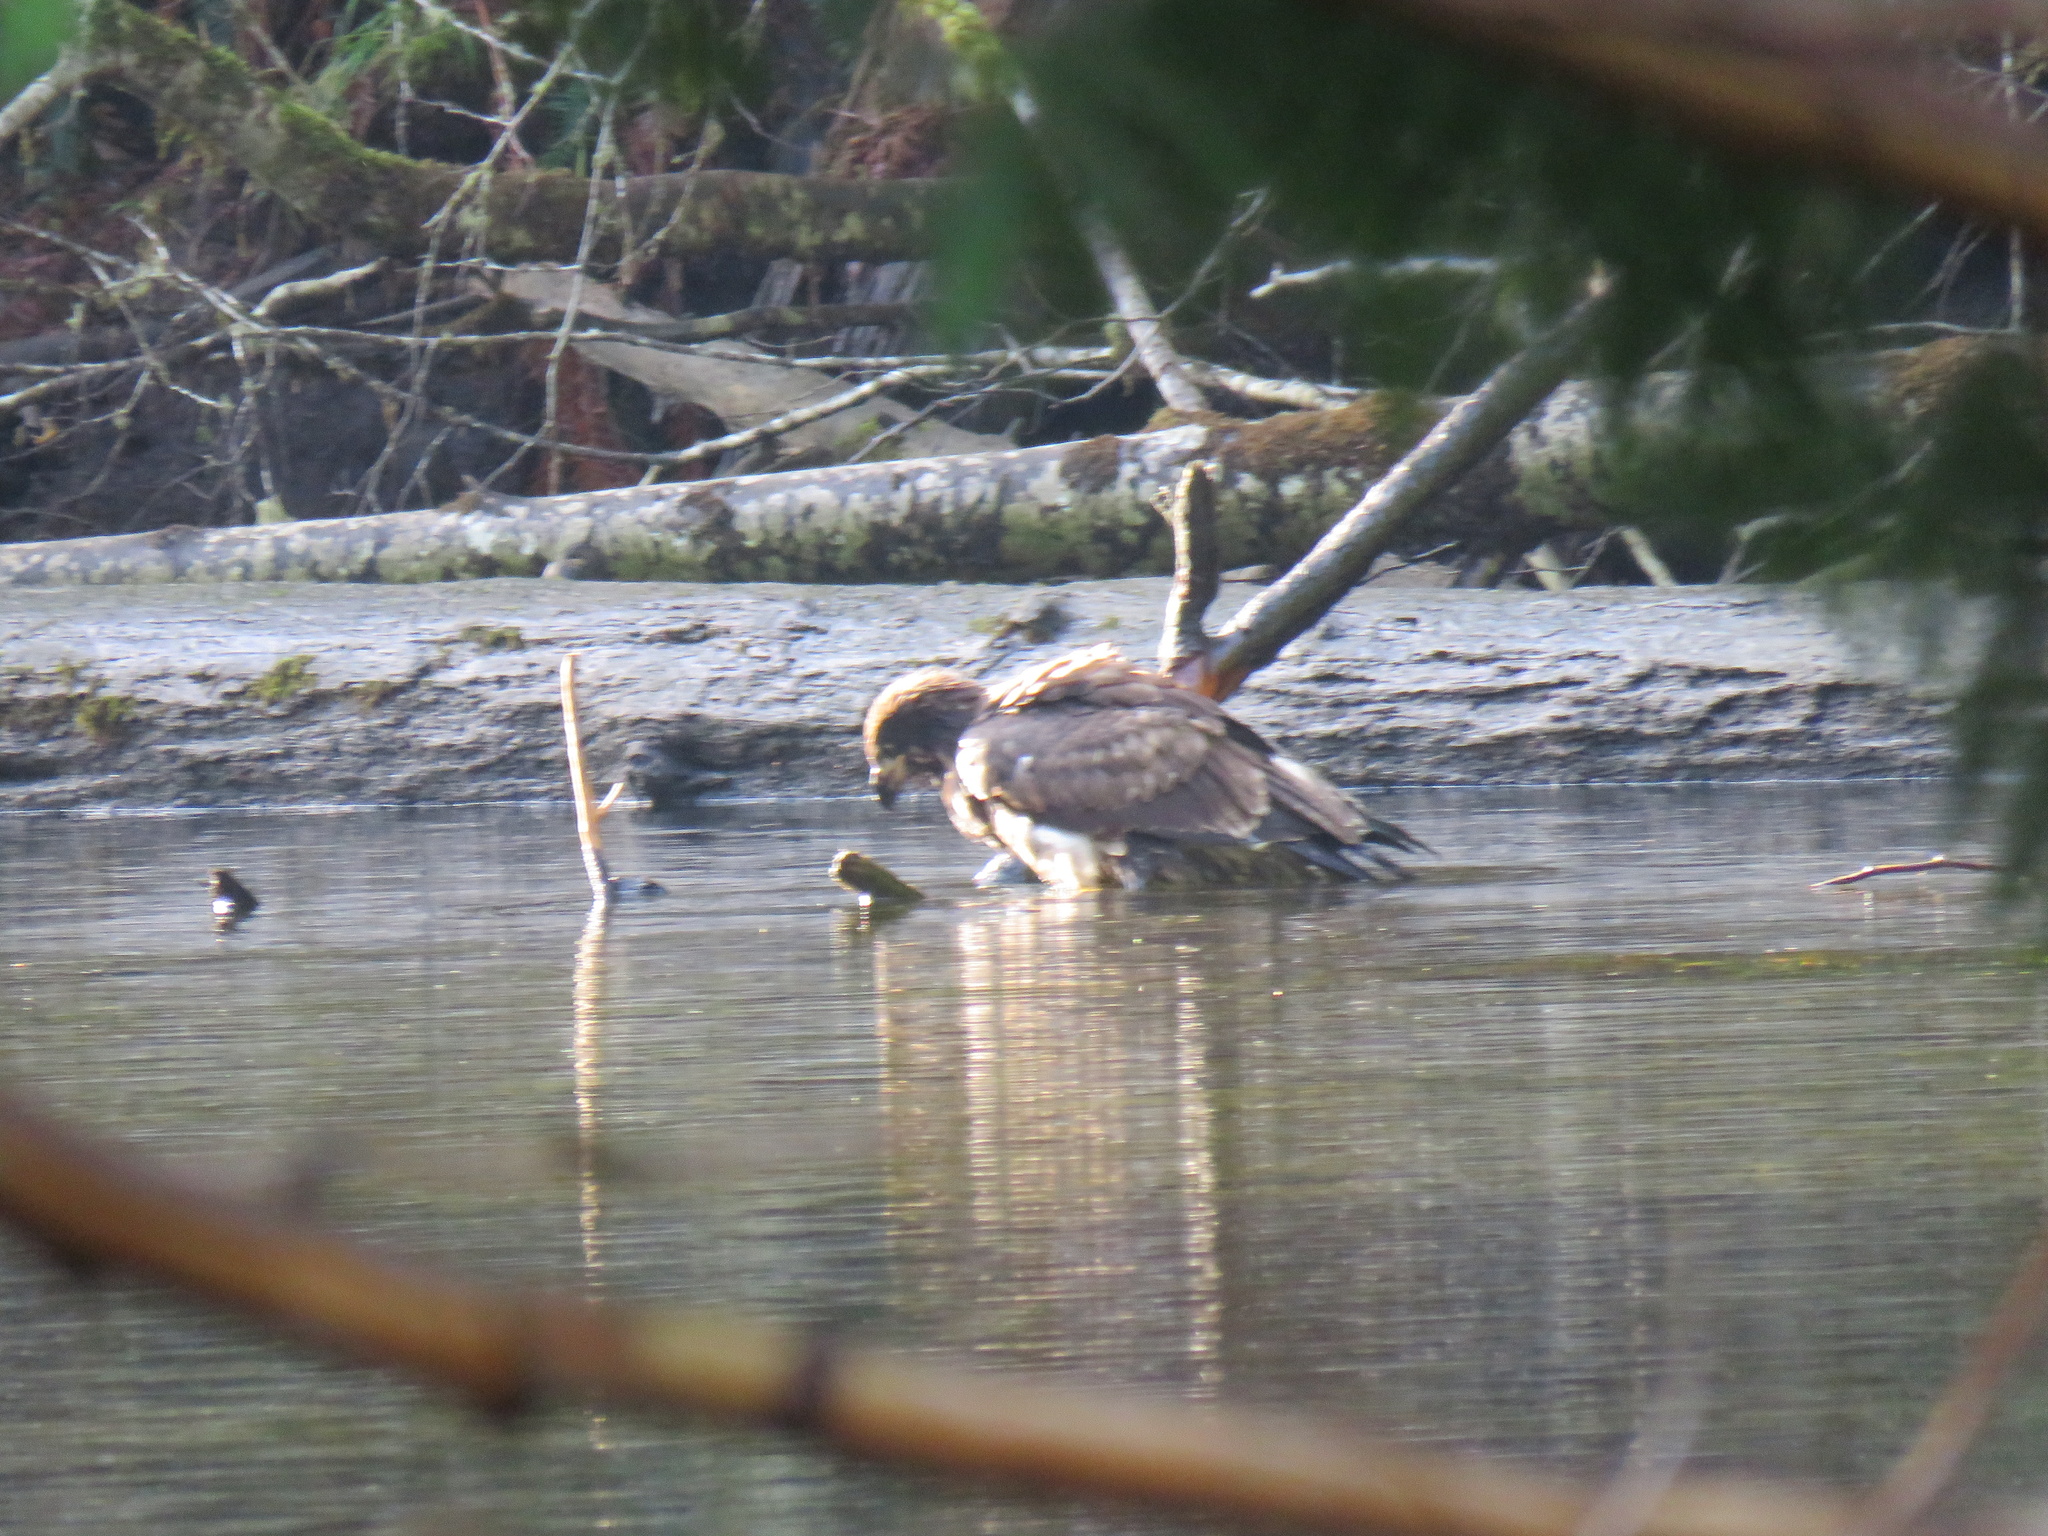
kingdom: Animalia
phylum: Chordata
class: Aves
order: Accipitriformes
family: Accipitridae
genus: Haliaeetus
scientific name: Haliaeetus leucocephalus
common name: Bald eagle
